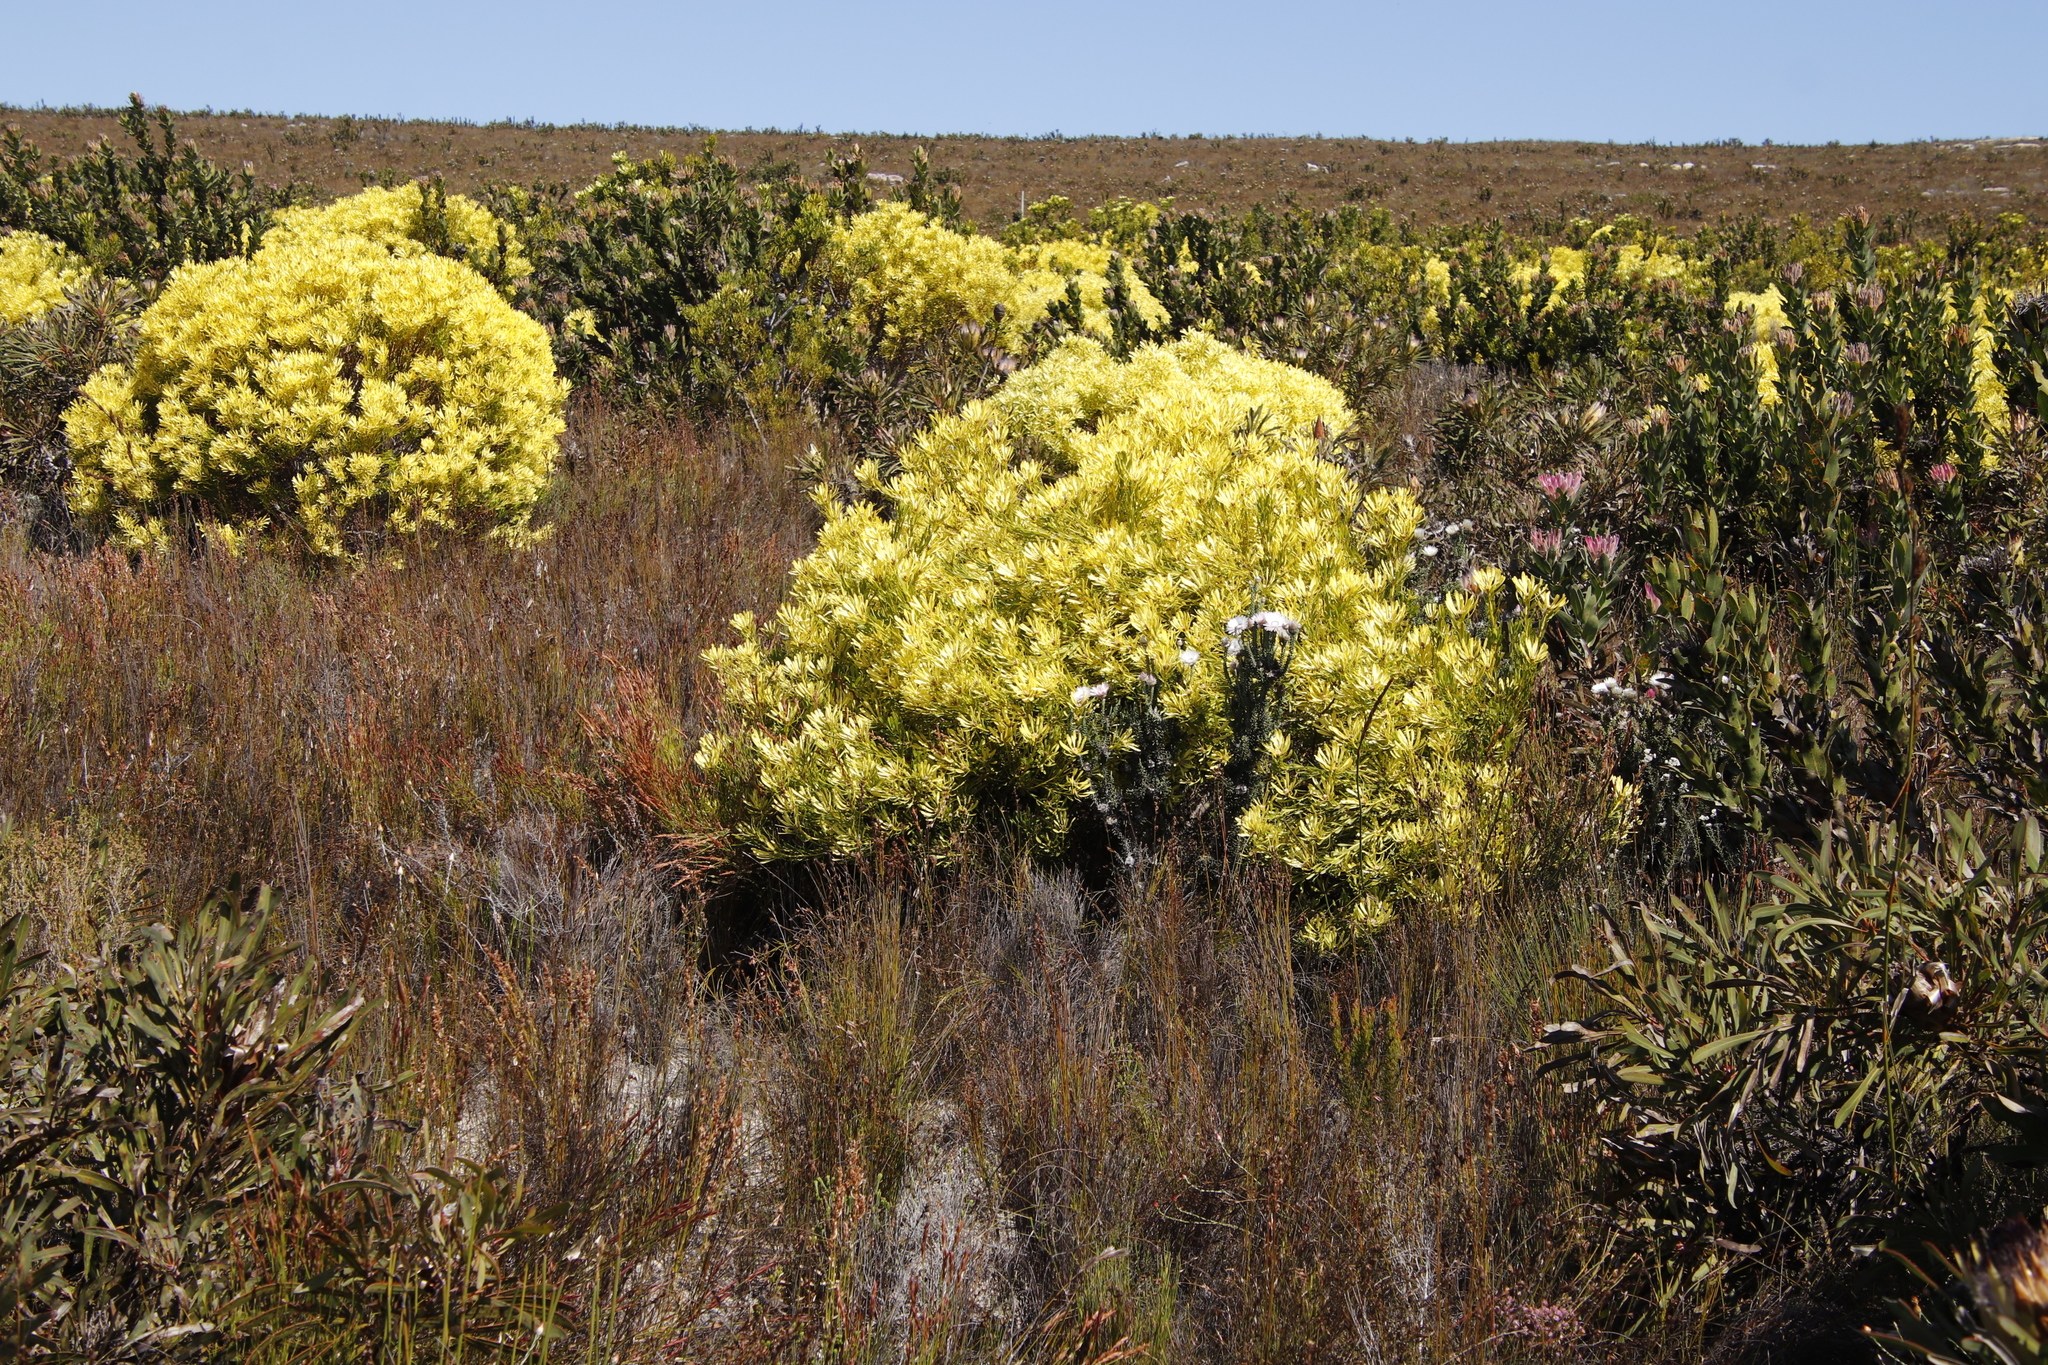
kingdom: Plantae
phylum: Tracheophyta
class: Magnoliopsida
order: Proteales
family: Proteaceae
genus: Leucadendron
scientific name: Leucadendron platyspermum
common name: Plate-seed conebush
